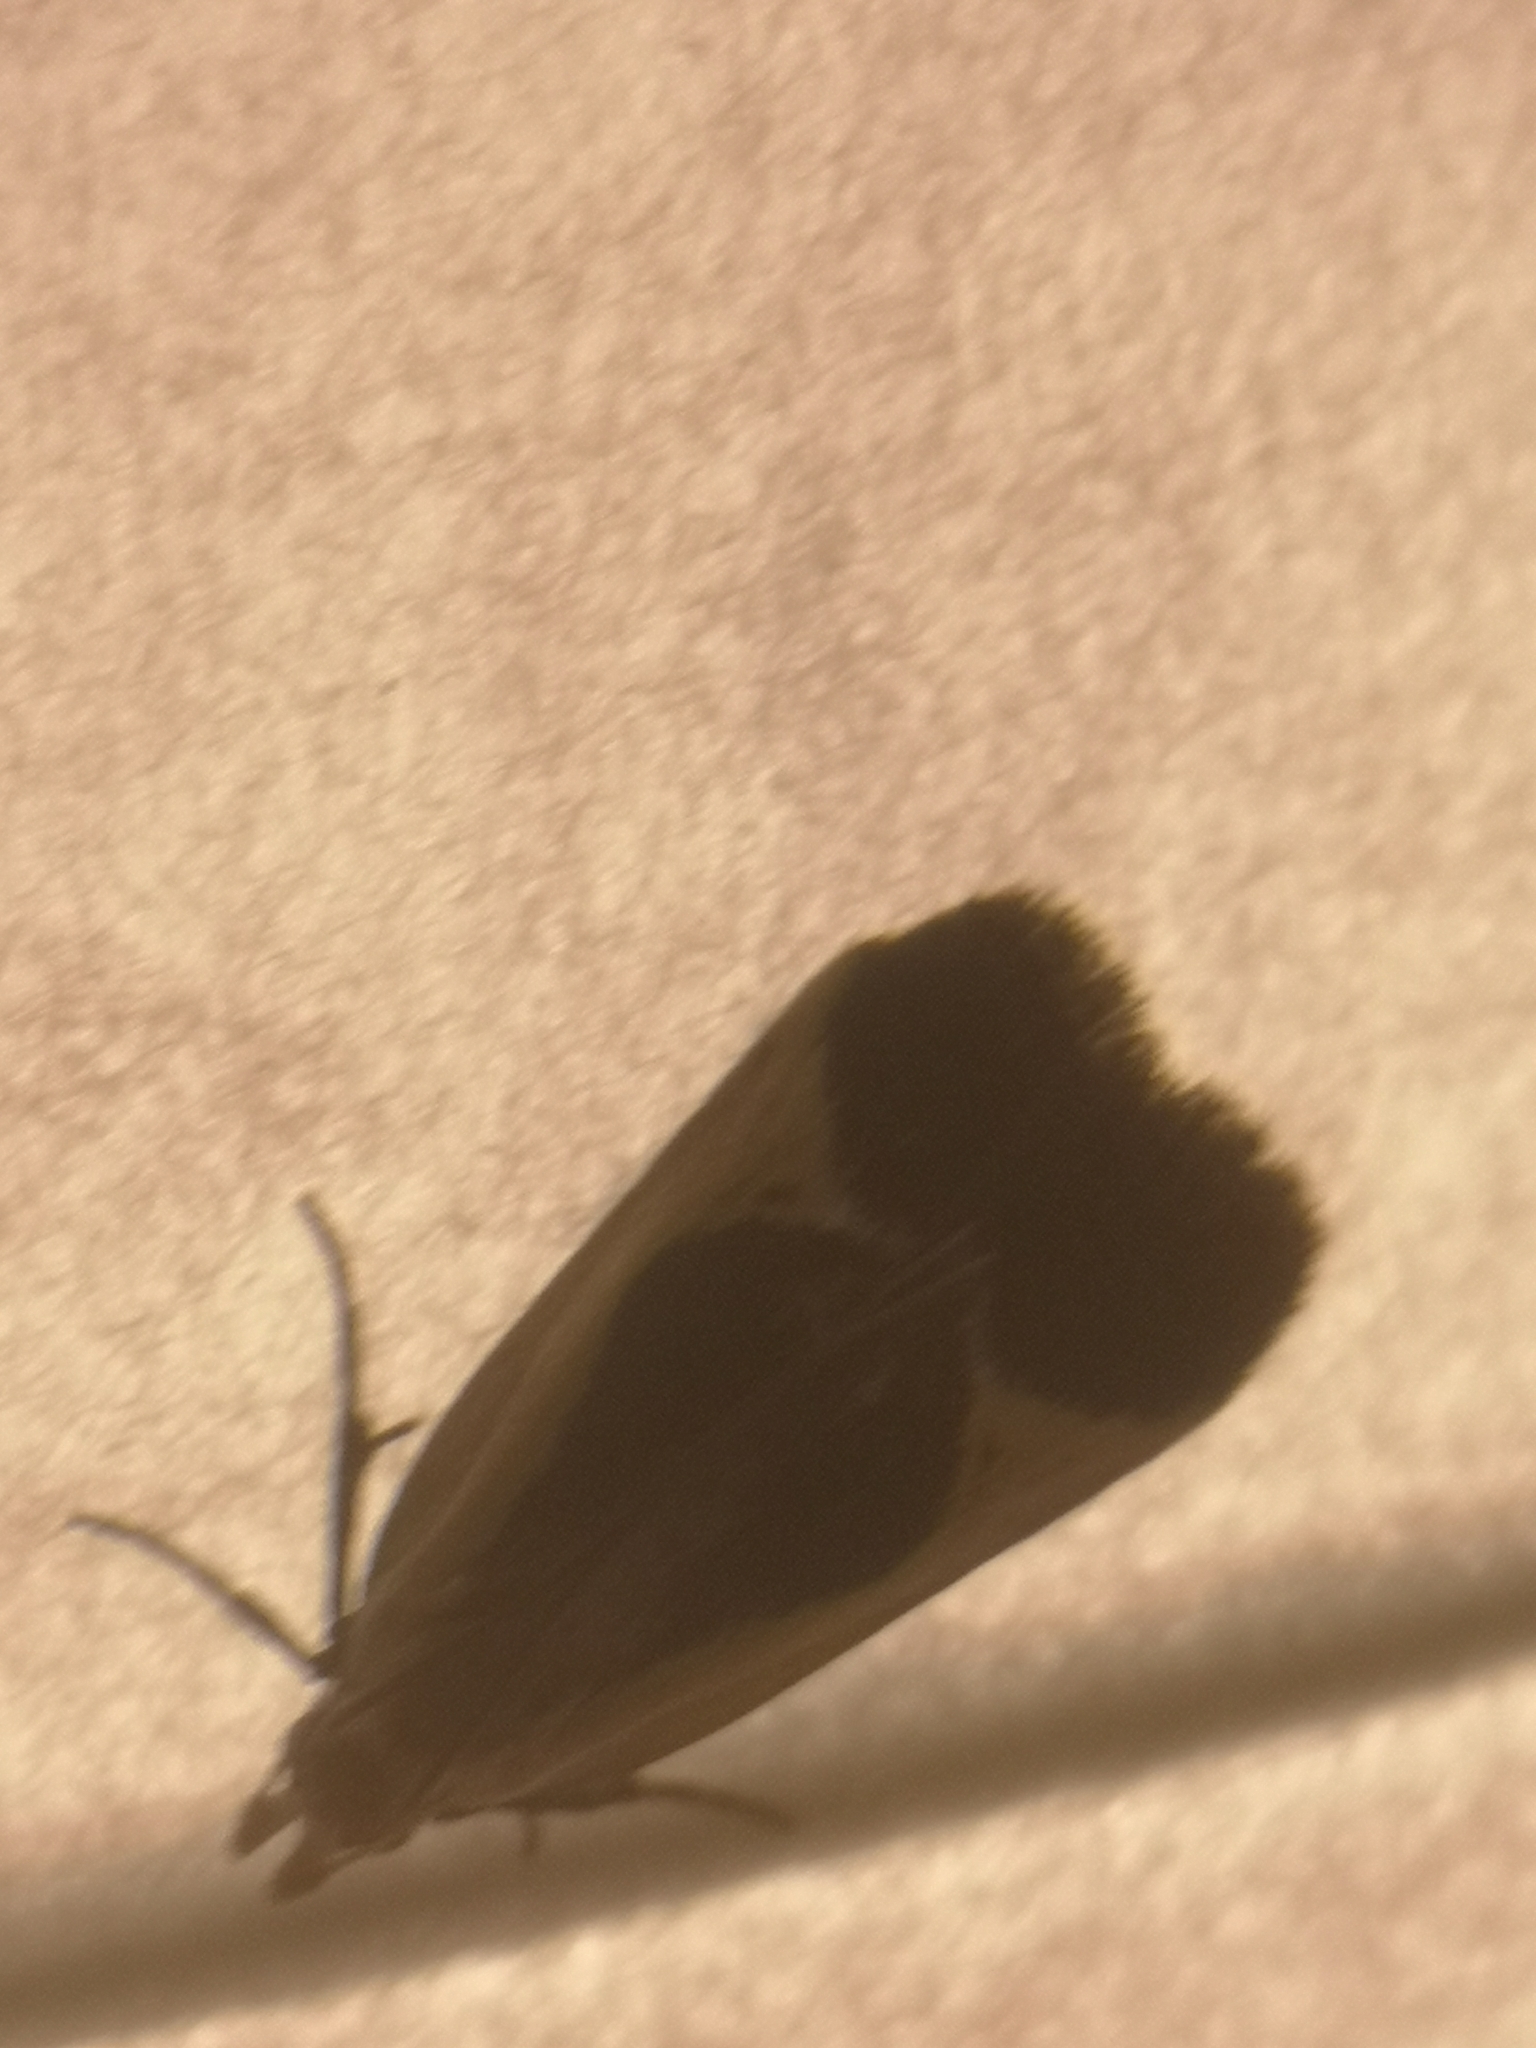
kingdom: Animalia
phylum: Arthropoda
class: Insecta
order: Lepidoptera
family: Gelechiidae
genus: Dichomeris
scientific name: Dichomeris flavocostella
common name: Cream-edged dichomeris moth
